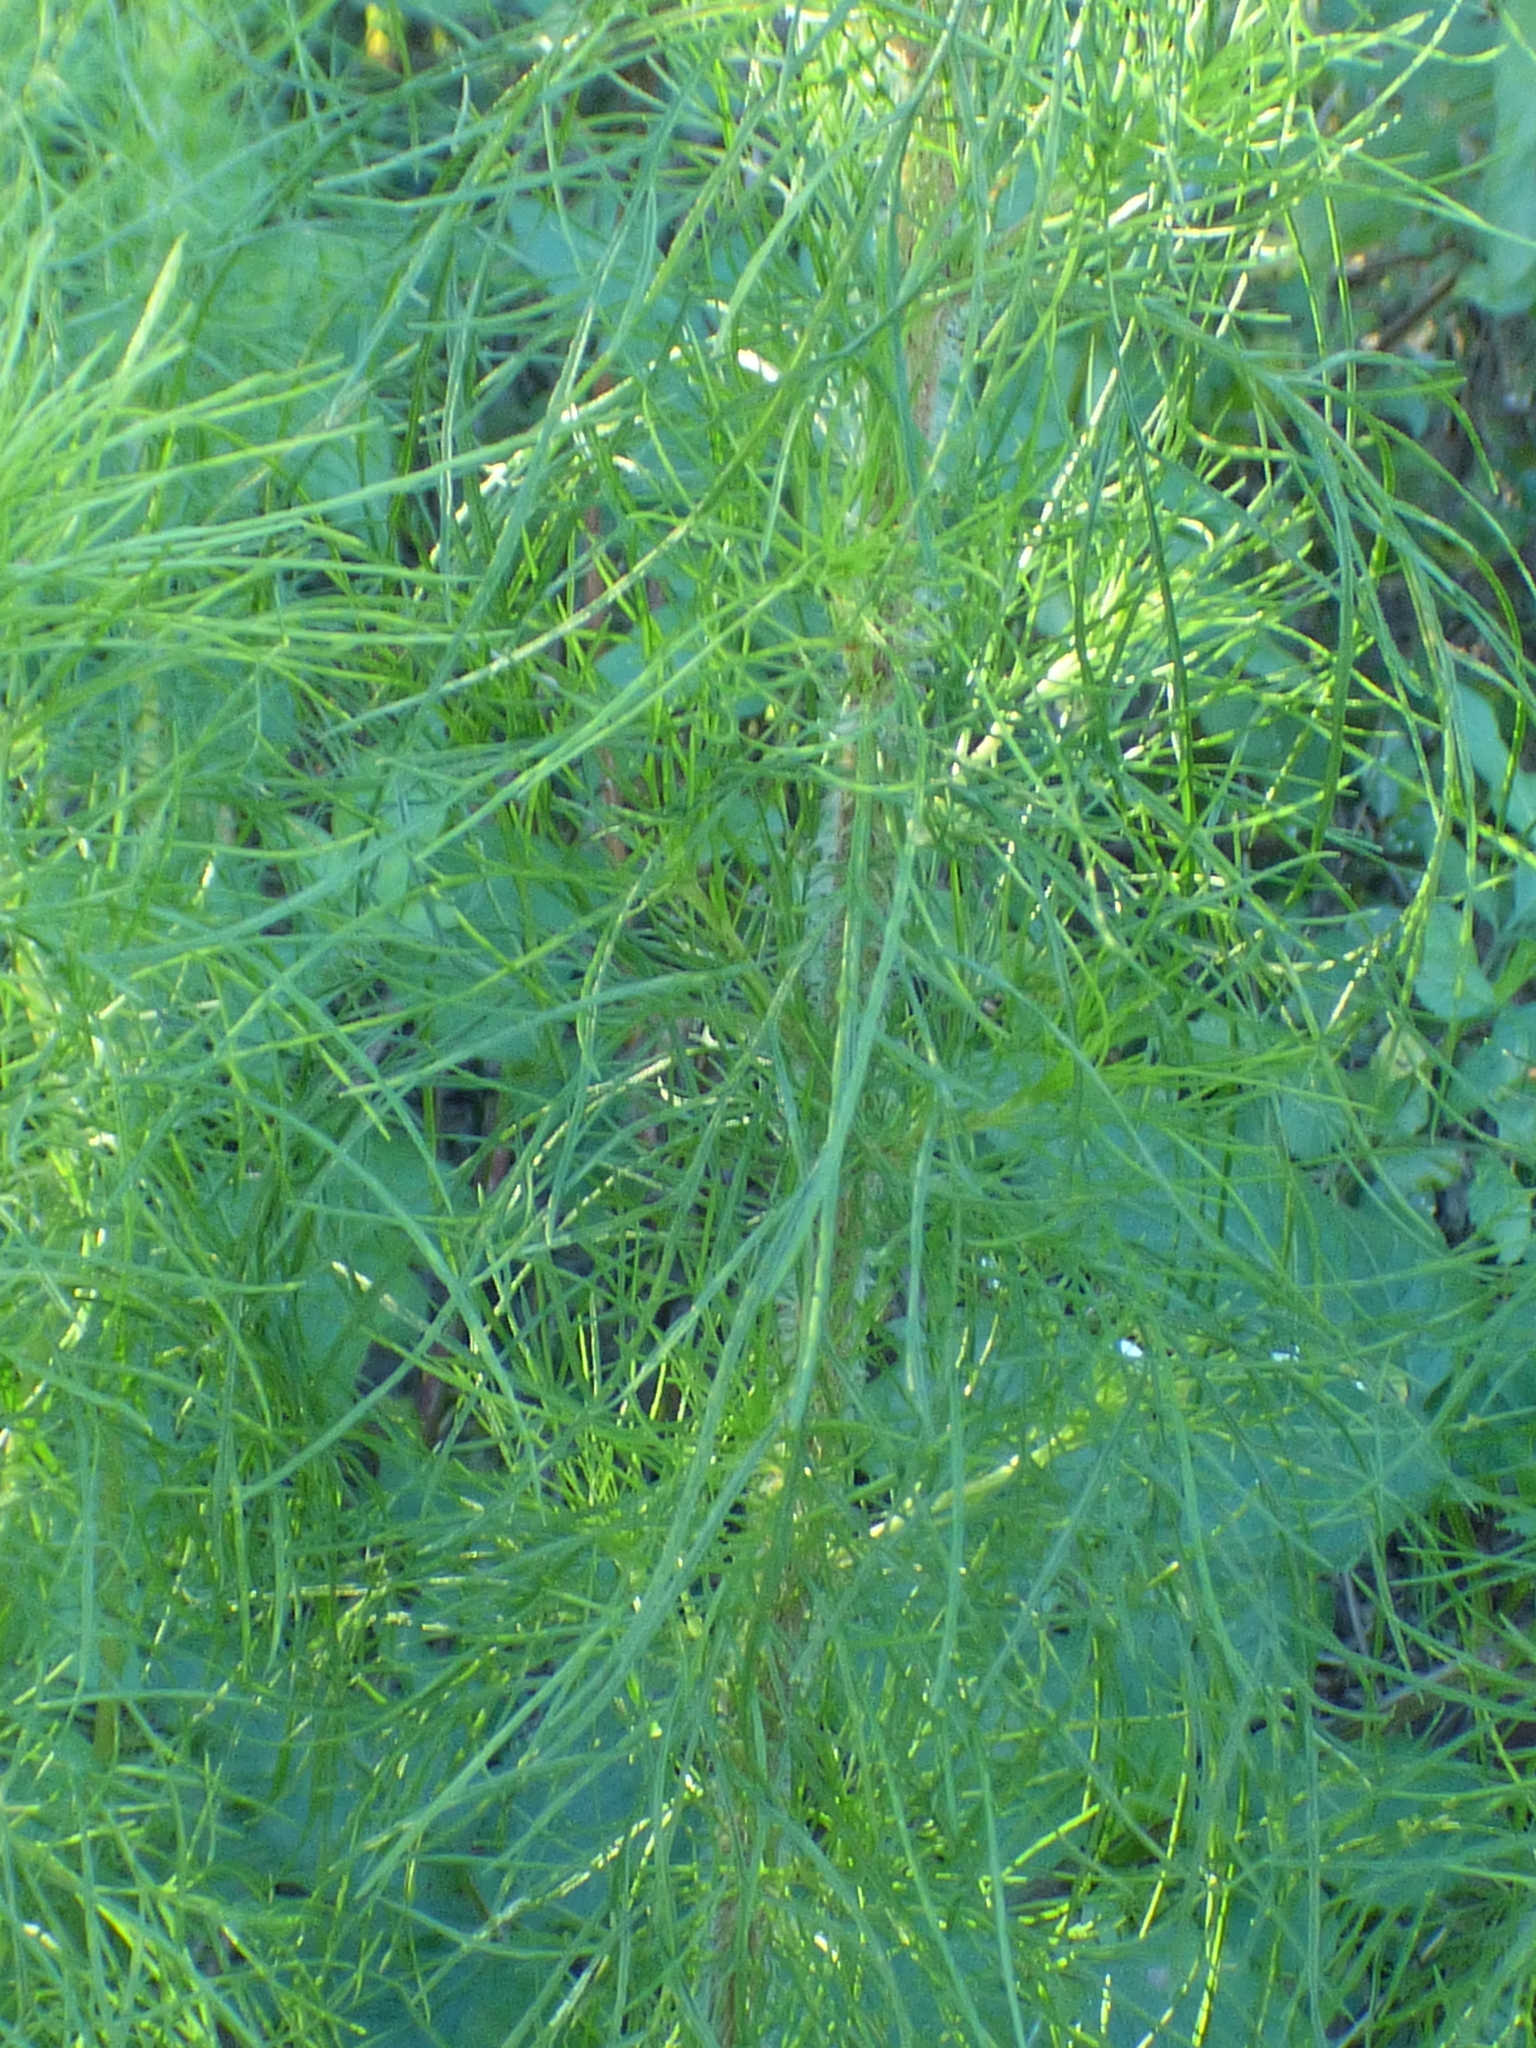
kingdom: Plantae
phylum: Tracheophyta
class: Magnoliopsida
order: Asterales
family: Asteraceae
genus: Eupatorium
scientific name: Eupatorium capillifolium
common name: Dog-fennel
